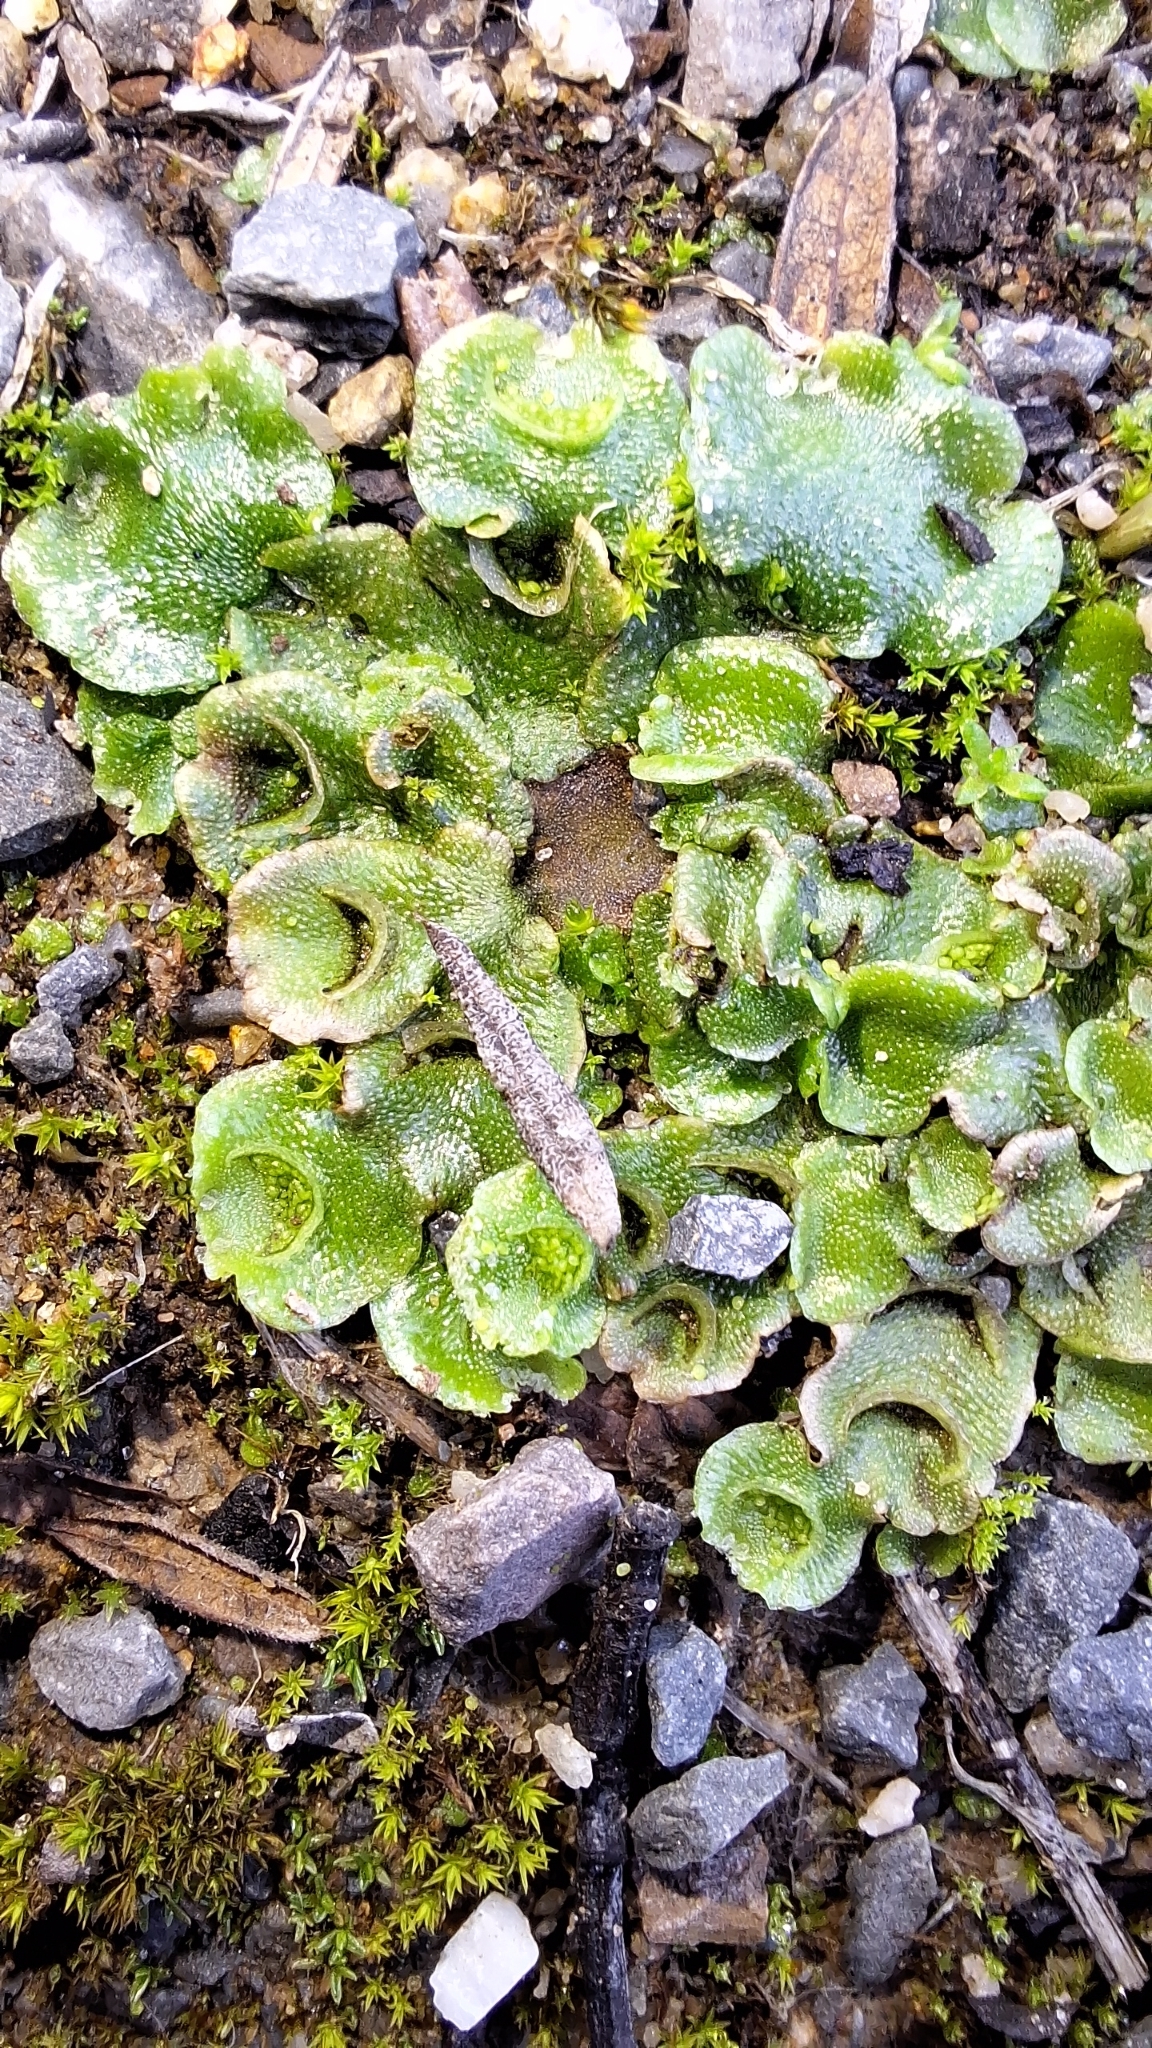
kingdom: Plantae
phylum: Marchantiophyta
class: Marchantiopsida
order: Lunulariales
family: Lunulariaceae
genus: Lunularia
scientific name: Lunularia cruciata
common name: Crescent-cup liverwort
